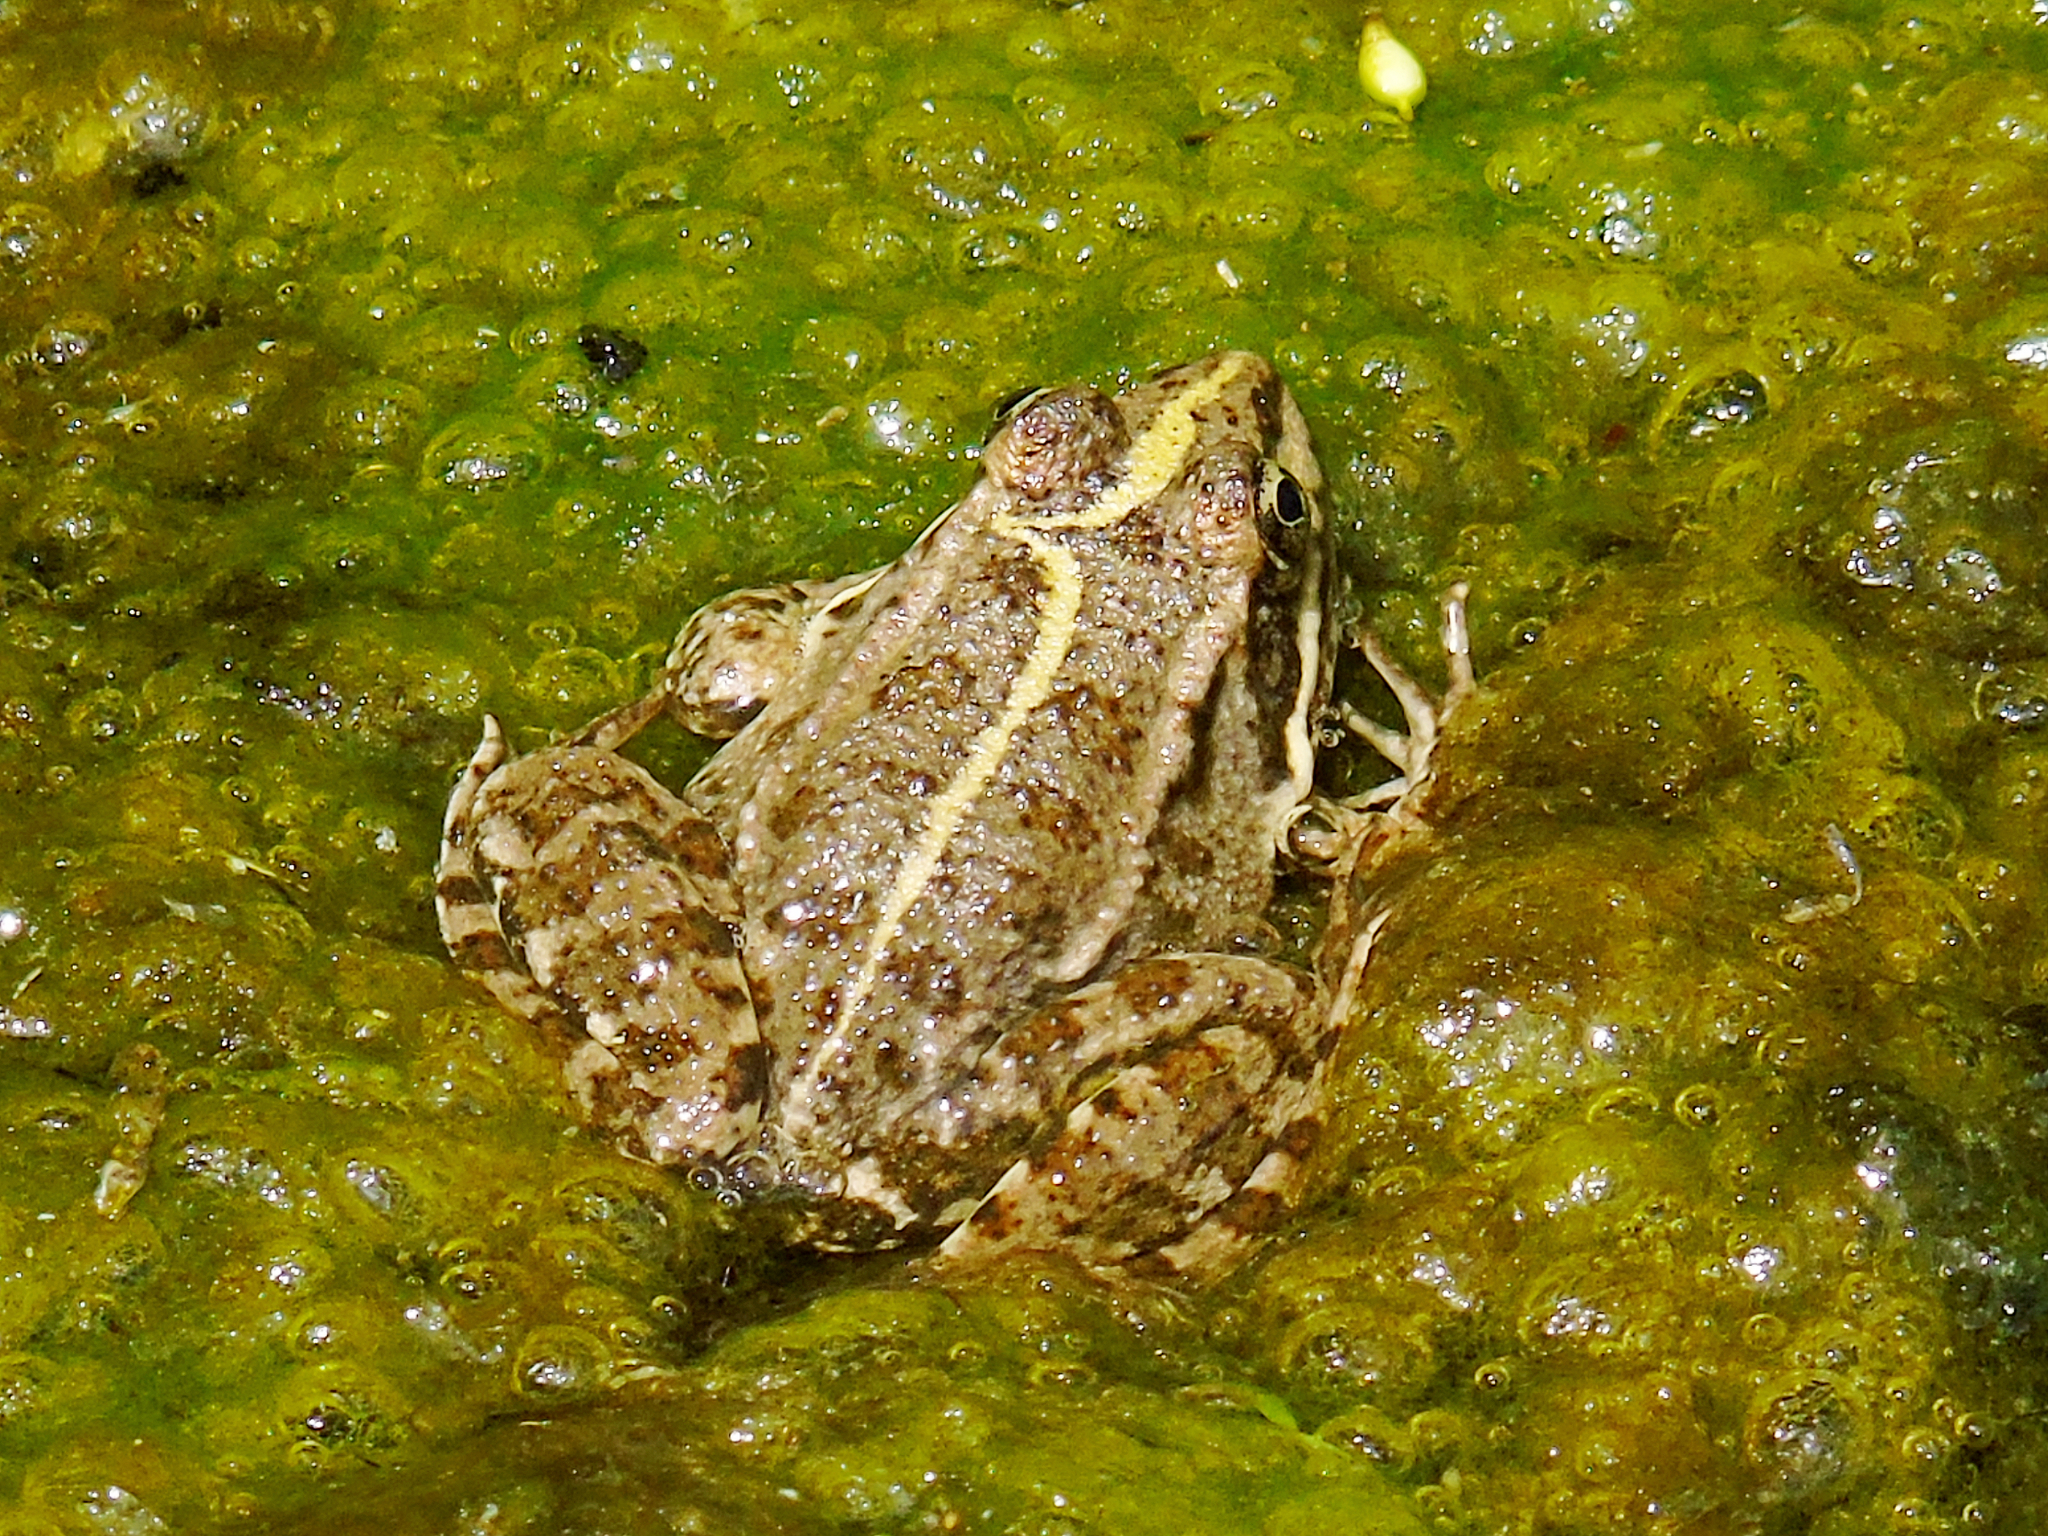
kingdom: Animalia
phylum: Chordata
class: Amphibia
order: Anura
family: Ranidae
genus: Pelophylax
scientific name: Pelophylax ridibundus
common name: Marsh frog
